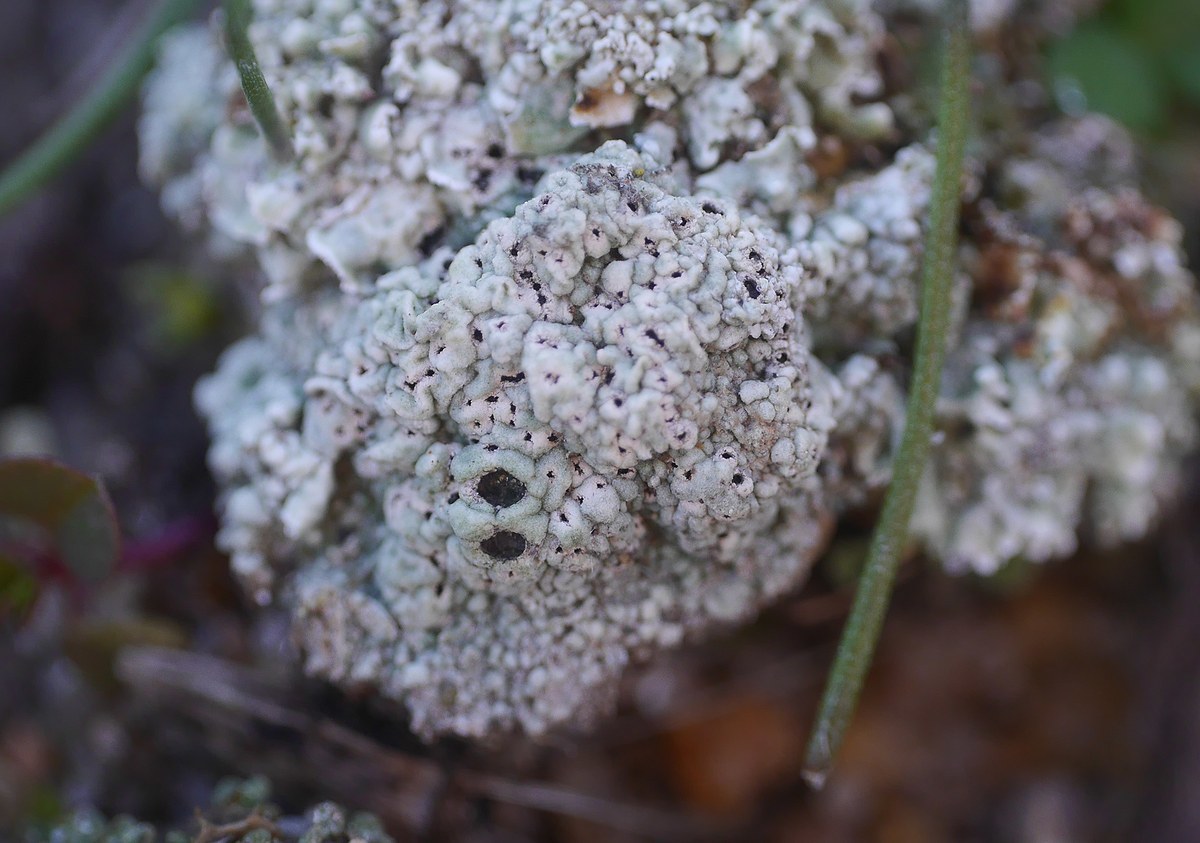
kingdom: Fungi
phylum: Ascomycota
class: Lecanoromycetes
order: Ostropales
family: Graphidaceae
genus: Diploschistes
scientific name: Diploschistes muscorum
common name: Cowpie lichen
